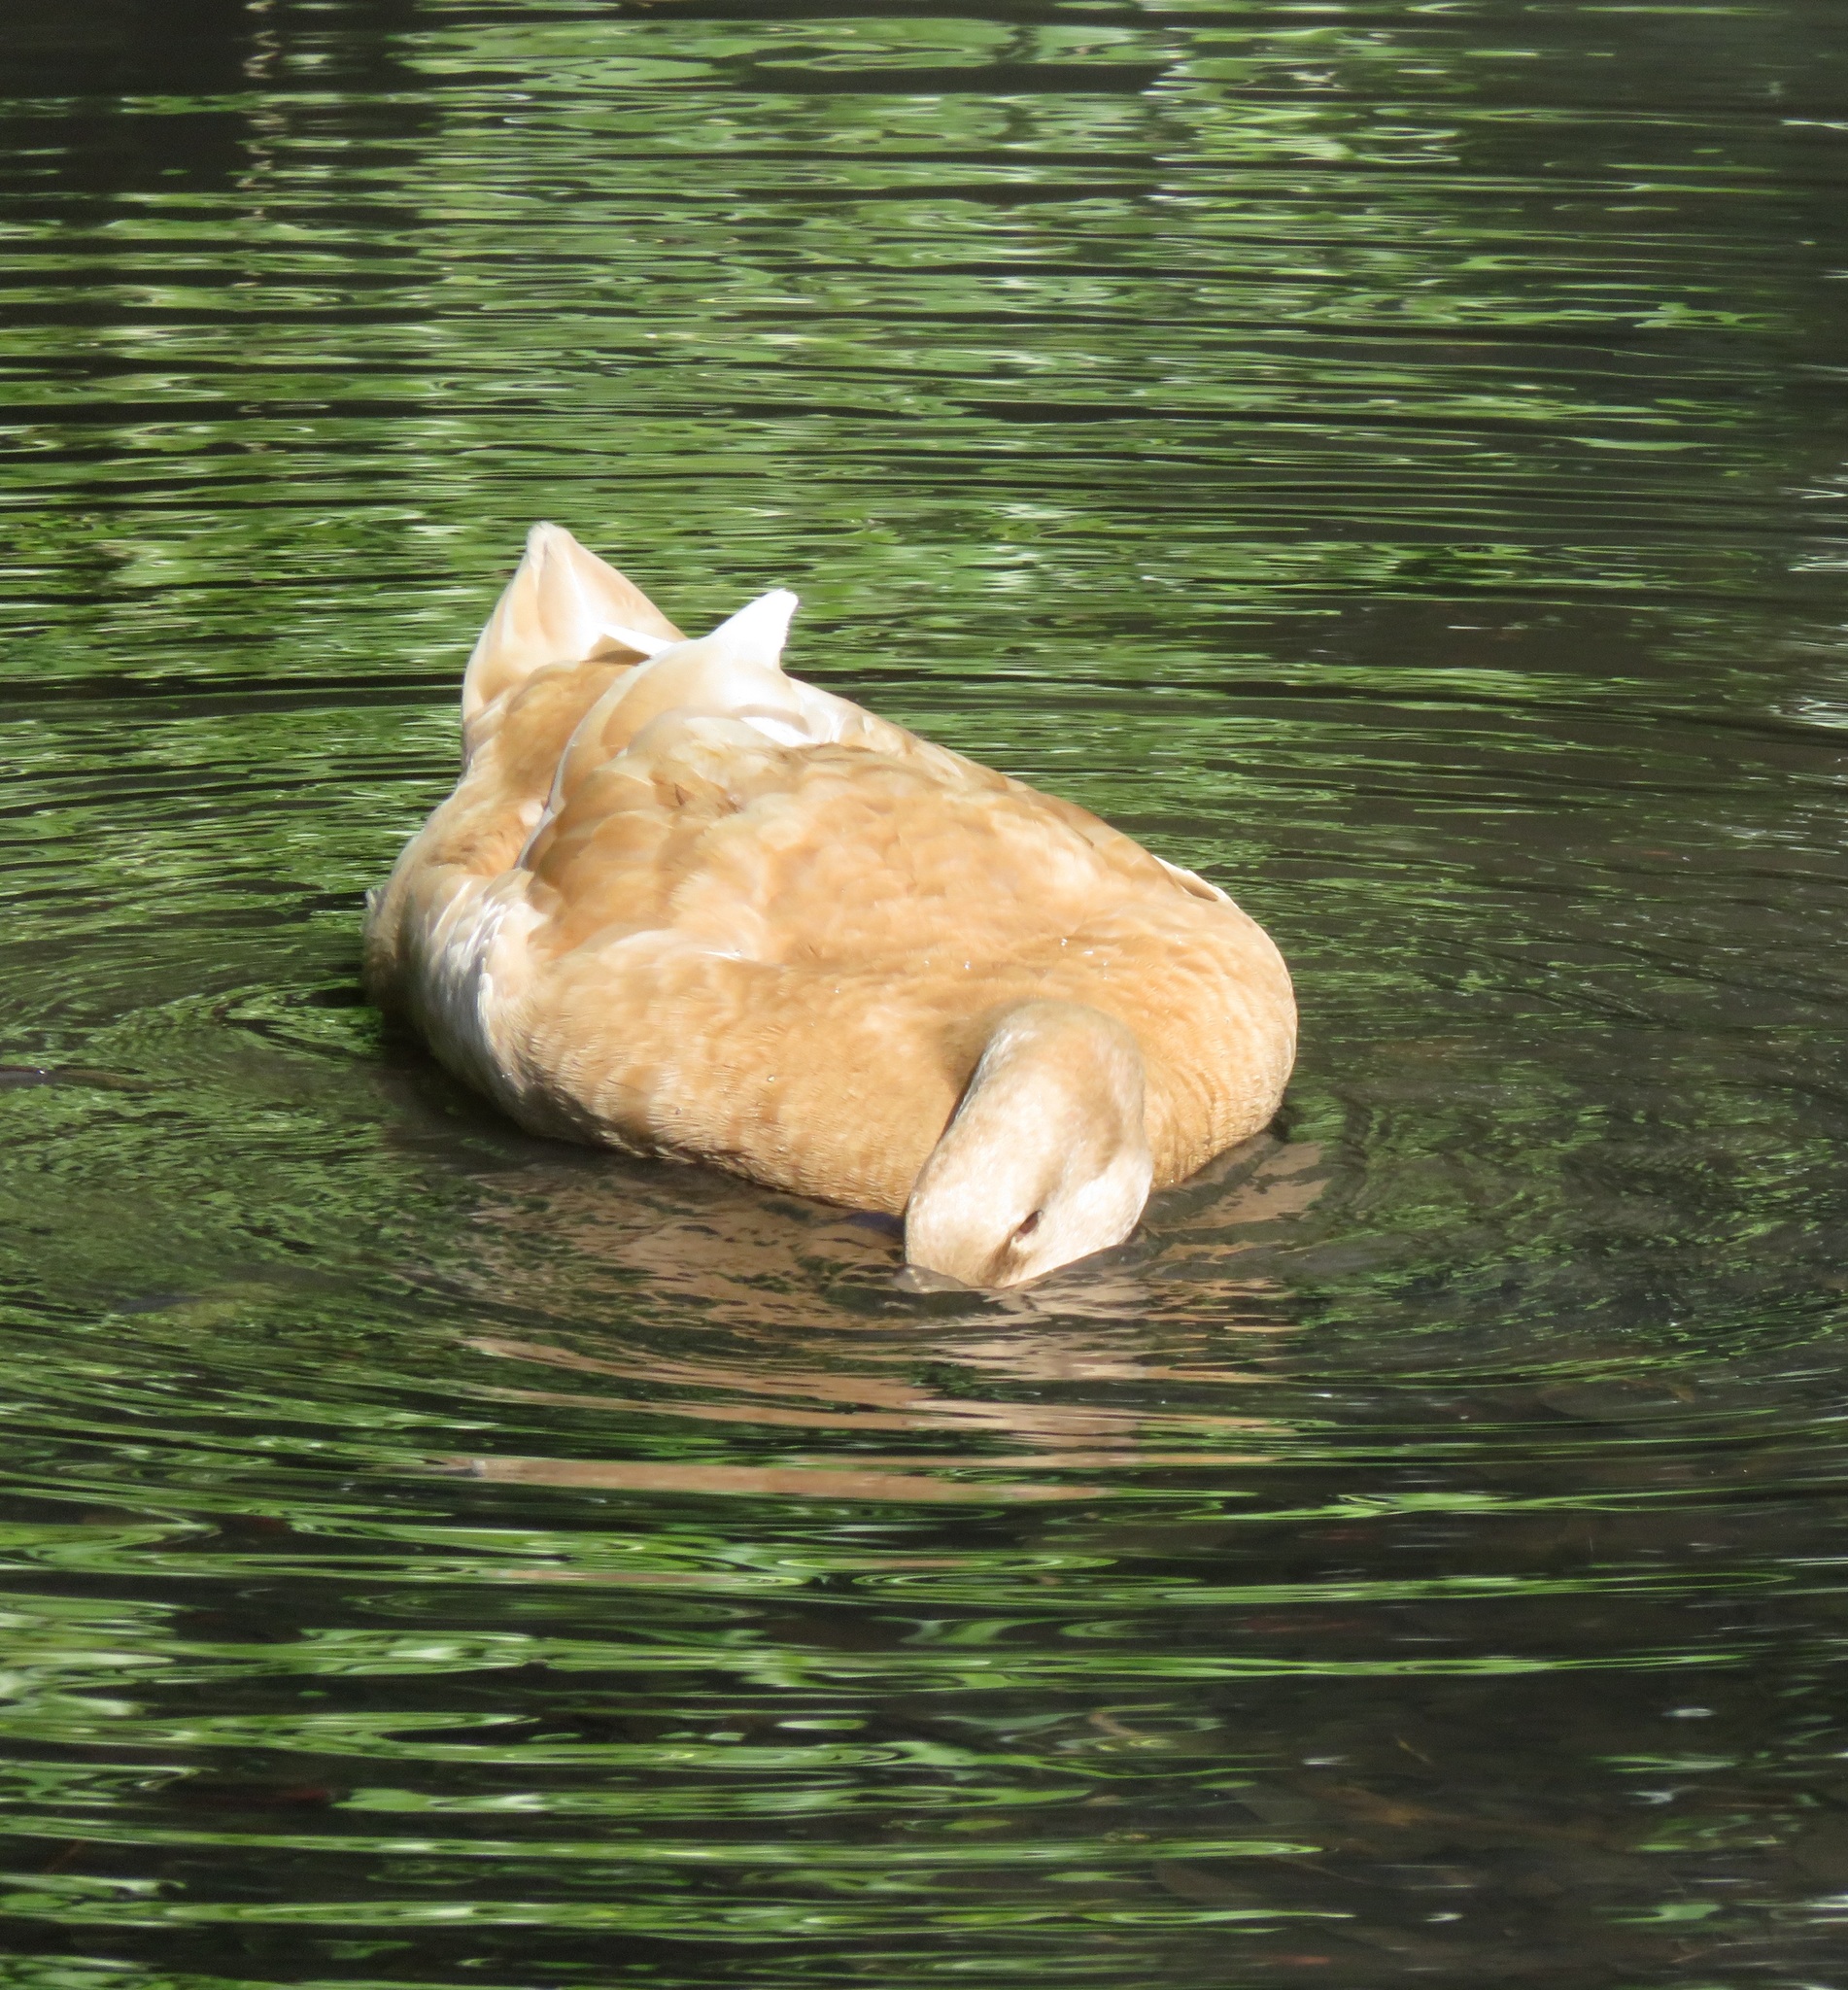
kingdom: Animalia
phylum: Chordata
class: Aves
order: Anseriformes
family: Anatidae
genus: Anas
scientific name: Anas platyrhynchos
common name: Mallard
